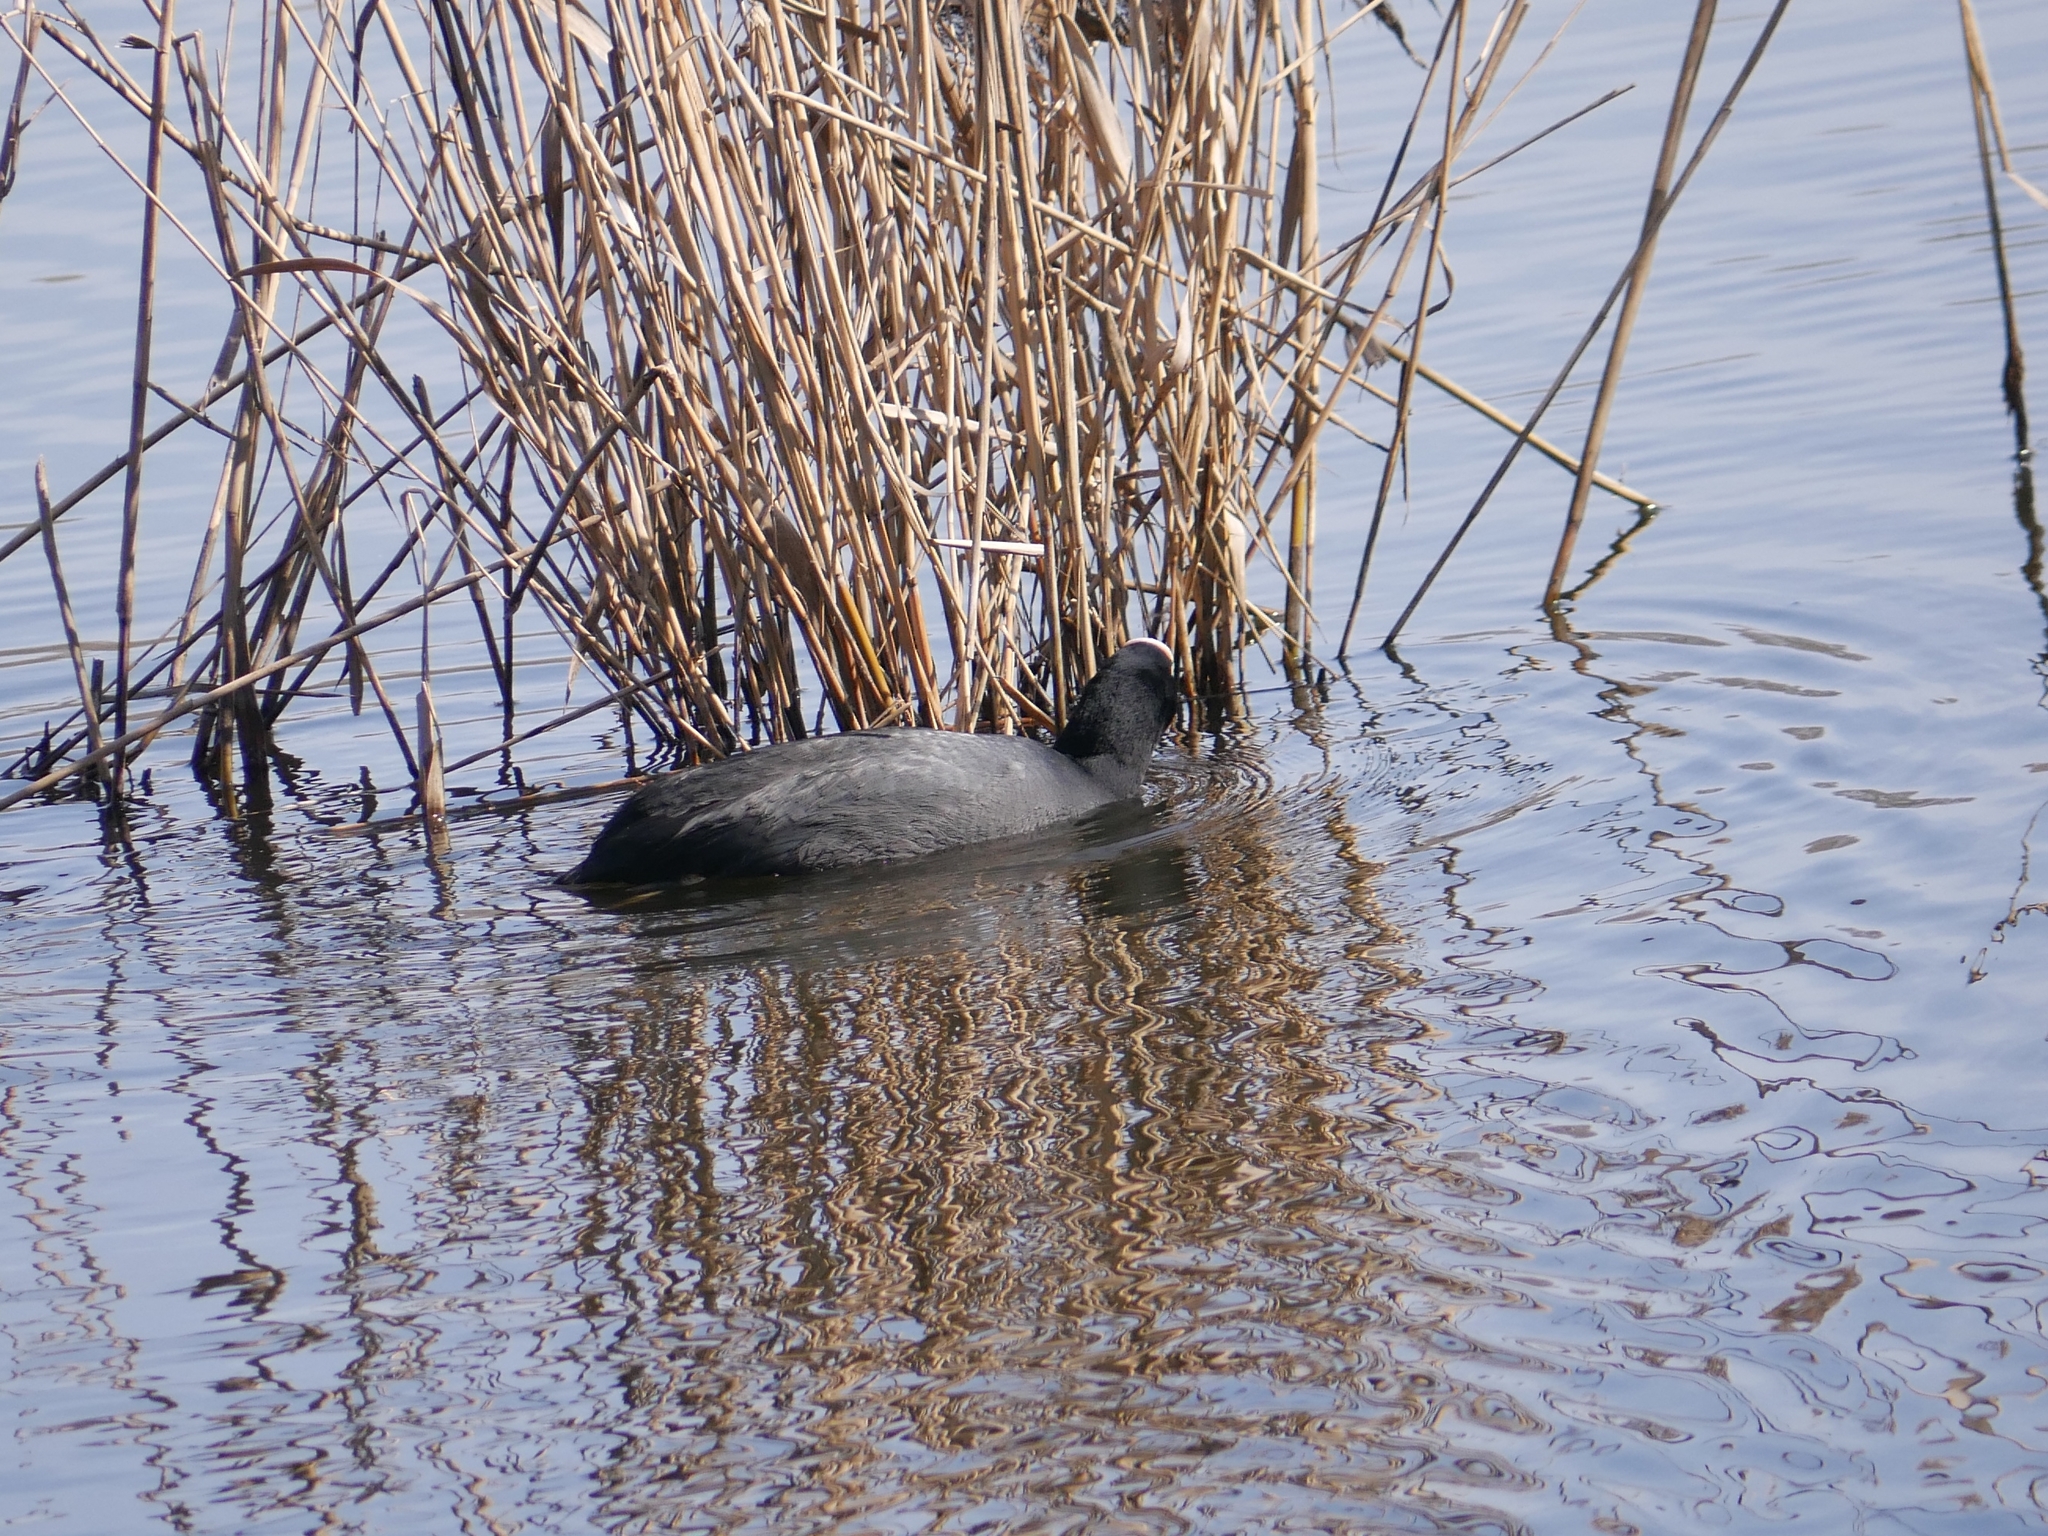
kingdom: Animalia
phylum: Chordata
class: Aves
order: Gruiformes
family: Rallidae
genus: Fulica
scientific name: Fulica atra
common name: Eurasian coot
